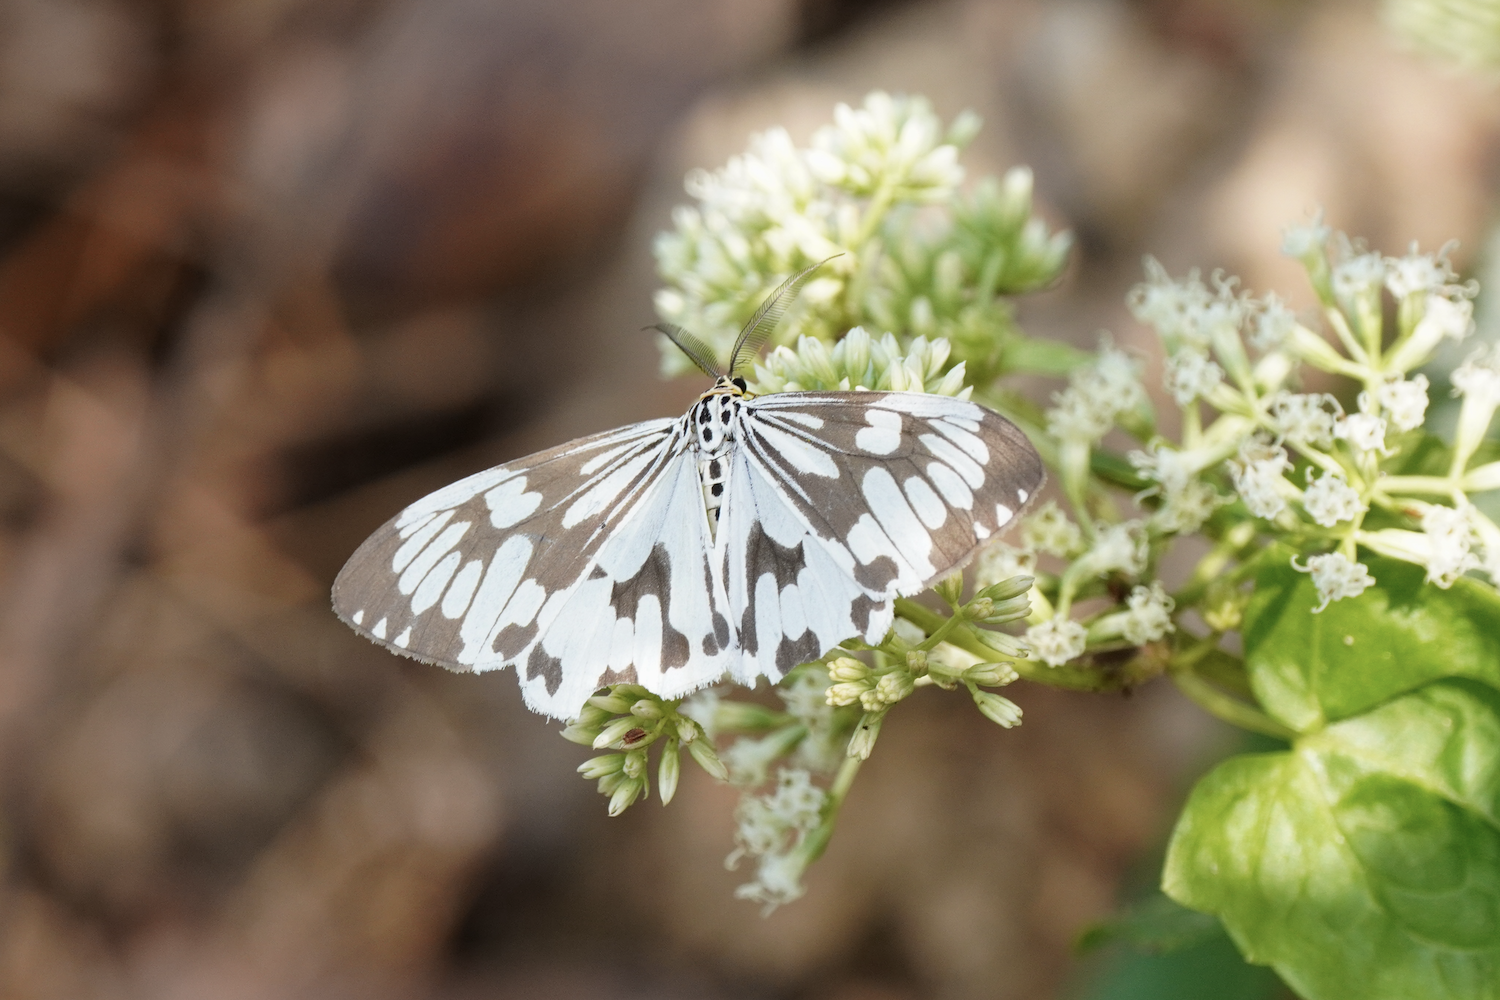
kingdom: Animalia
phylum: Arthropoda
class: Insecta
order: Lepidoptera
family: Erebidae
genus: Nyctemera
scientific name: Nyctemera adversata
